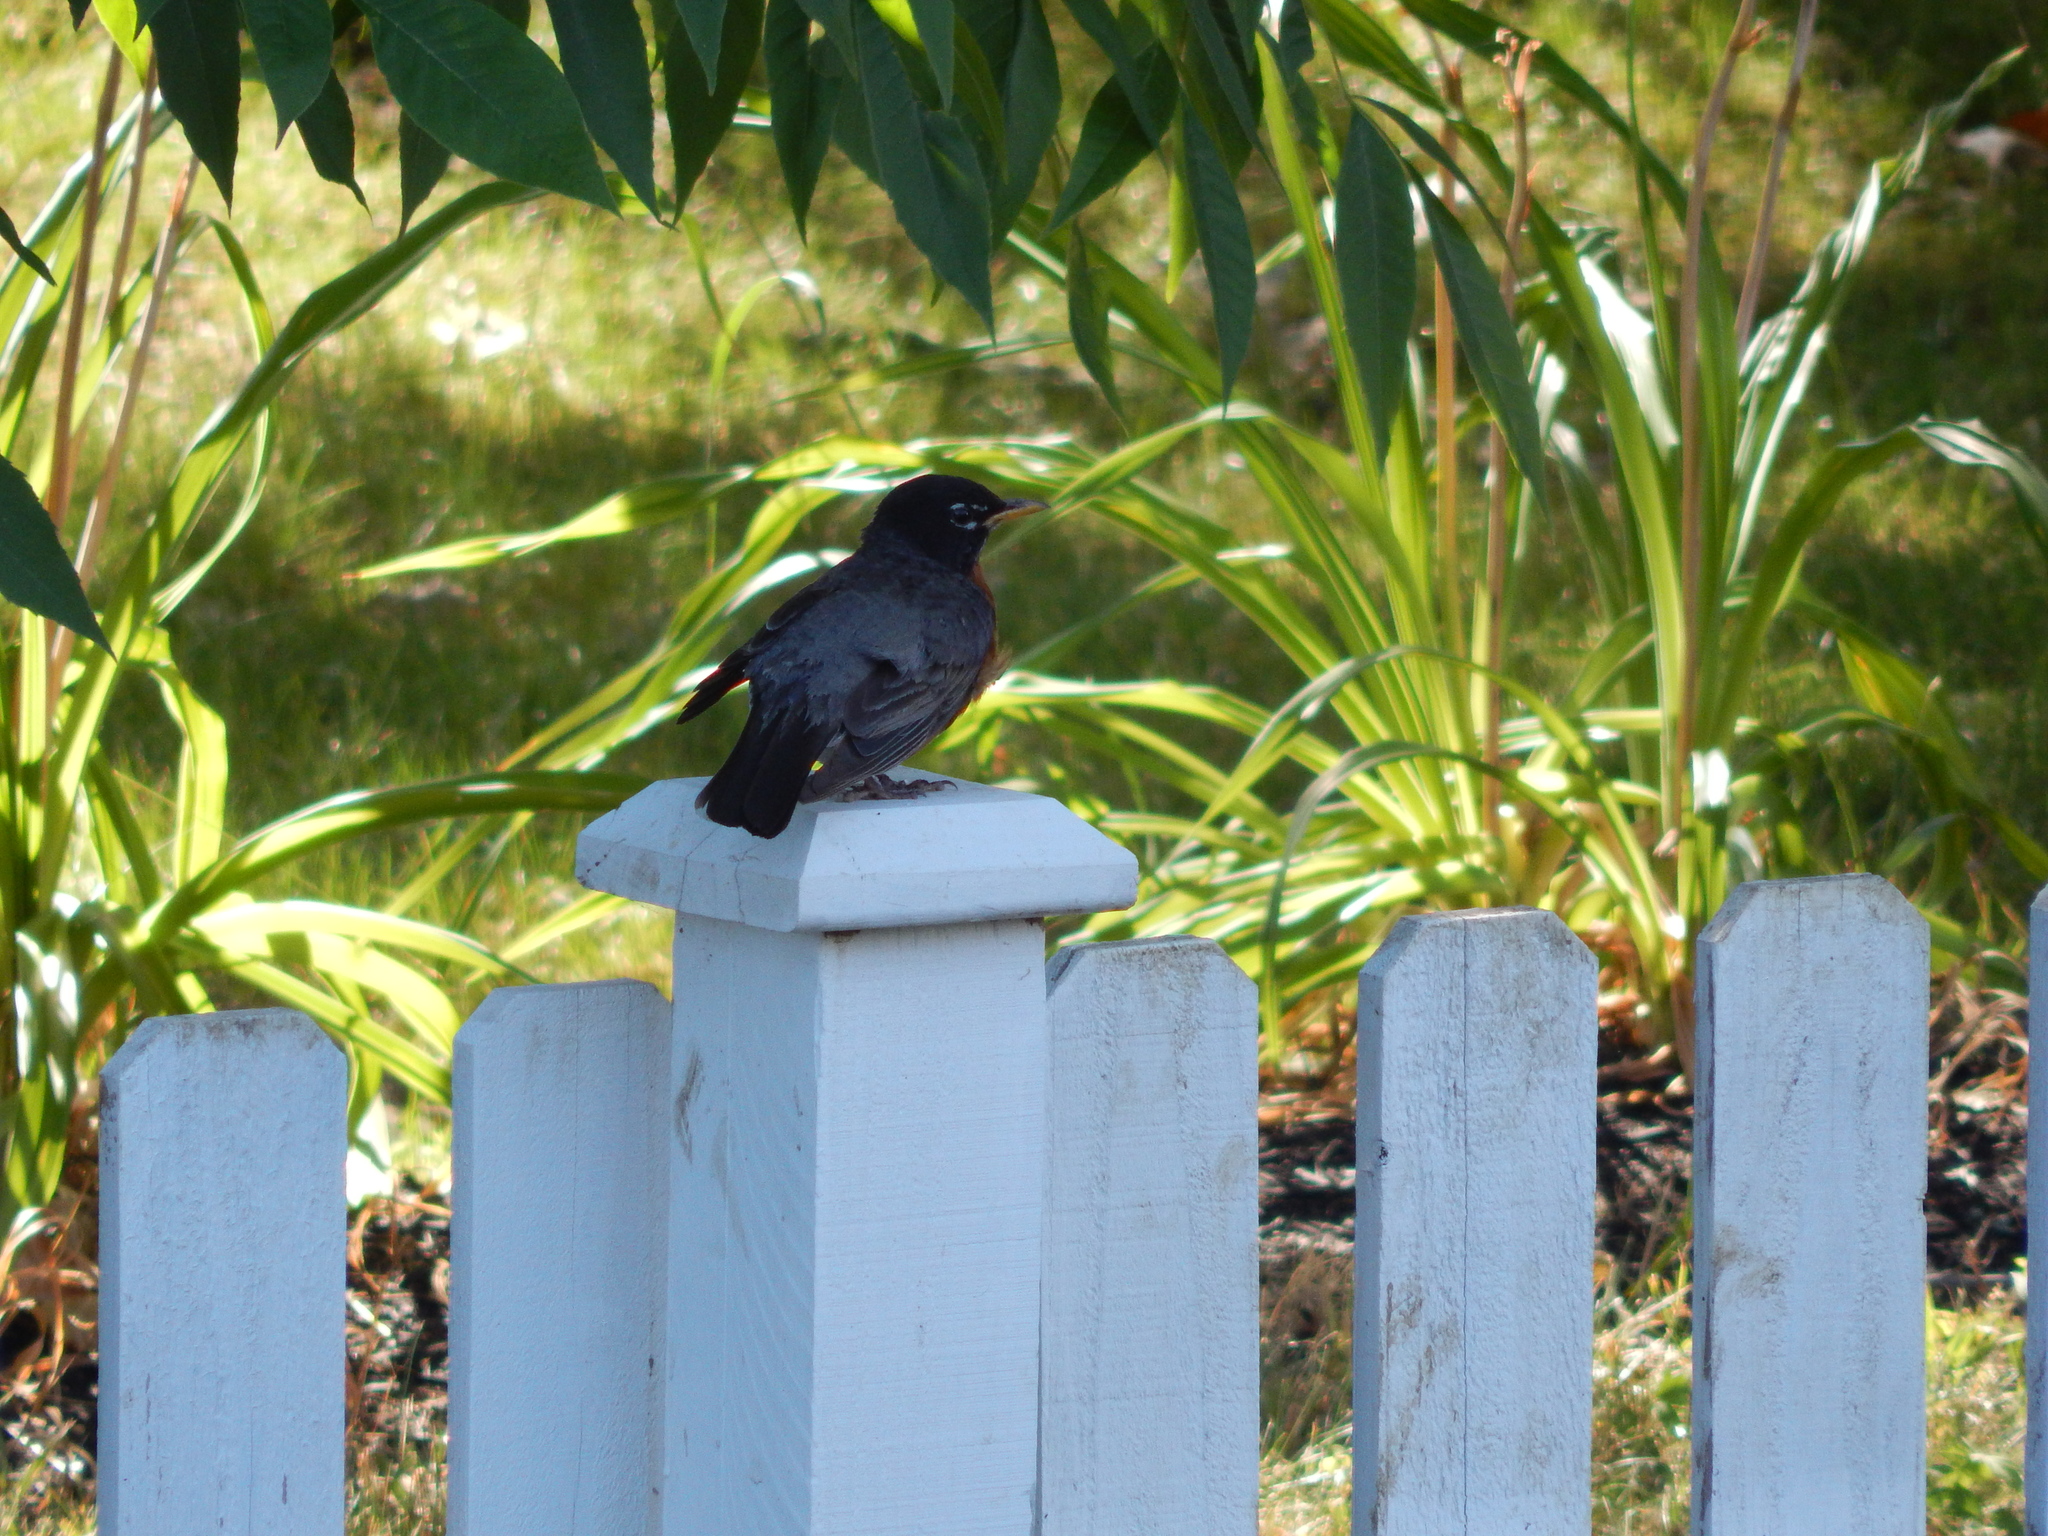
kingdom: Animalia
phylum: Chordata
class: Aves
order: Passeriformes
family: Turdidae
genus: Turdus
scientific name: Turdus migratorius
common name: American robin
